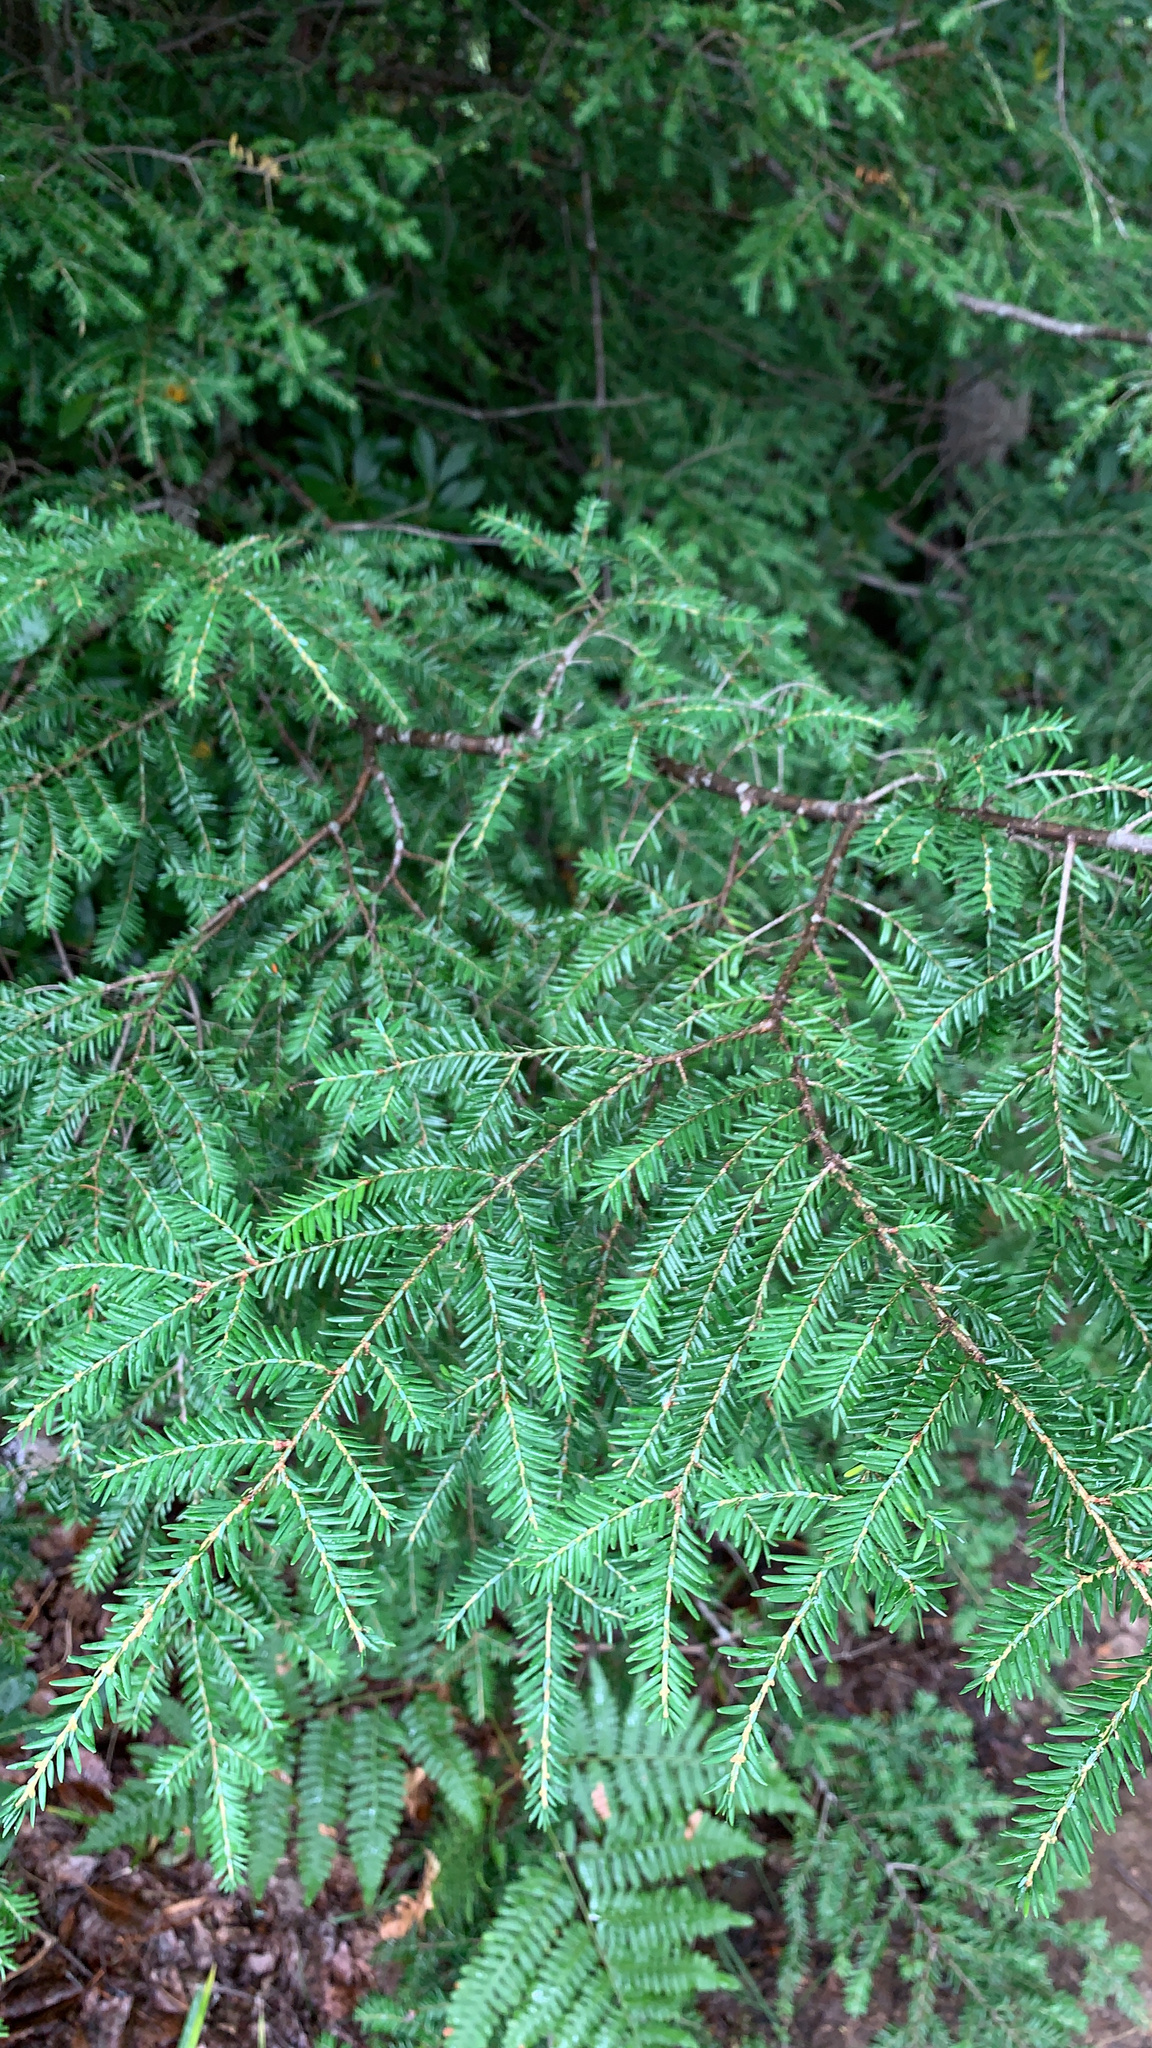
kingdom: Plantae
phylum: Tracheophyta
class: Pinopsida
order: Pinales
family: Pinaceae
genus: Tsuga
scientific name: Tsuga canadensis
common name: Eastern hemlock
